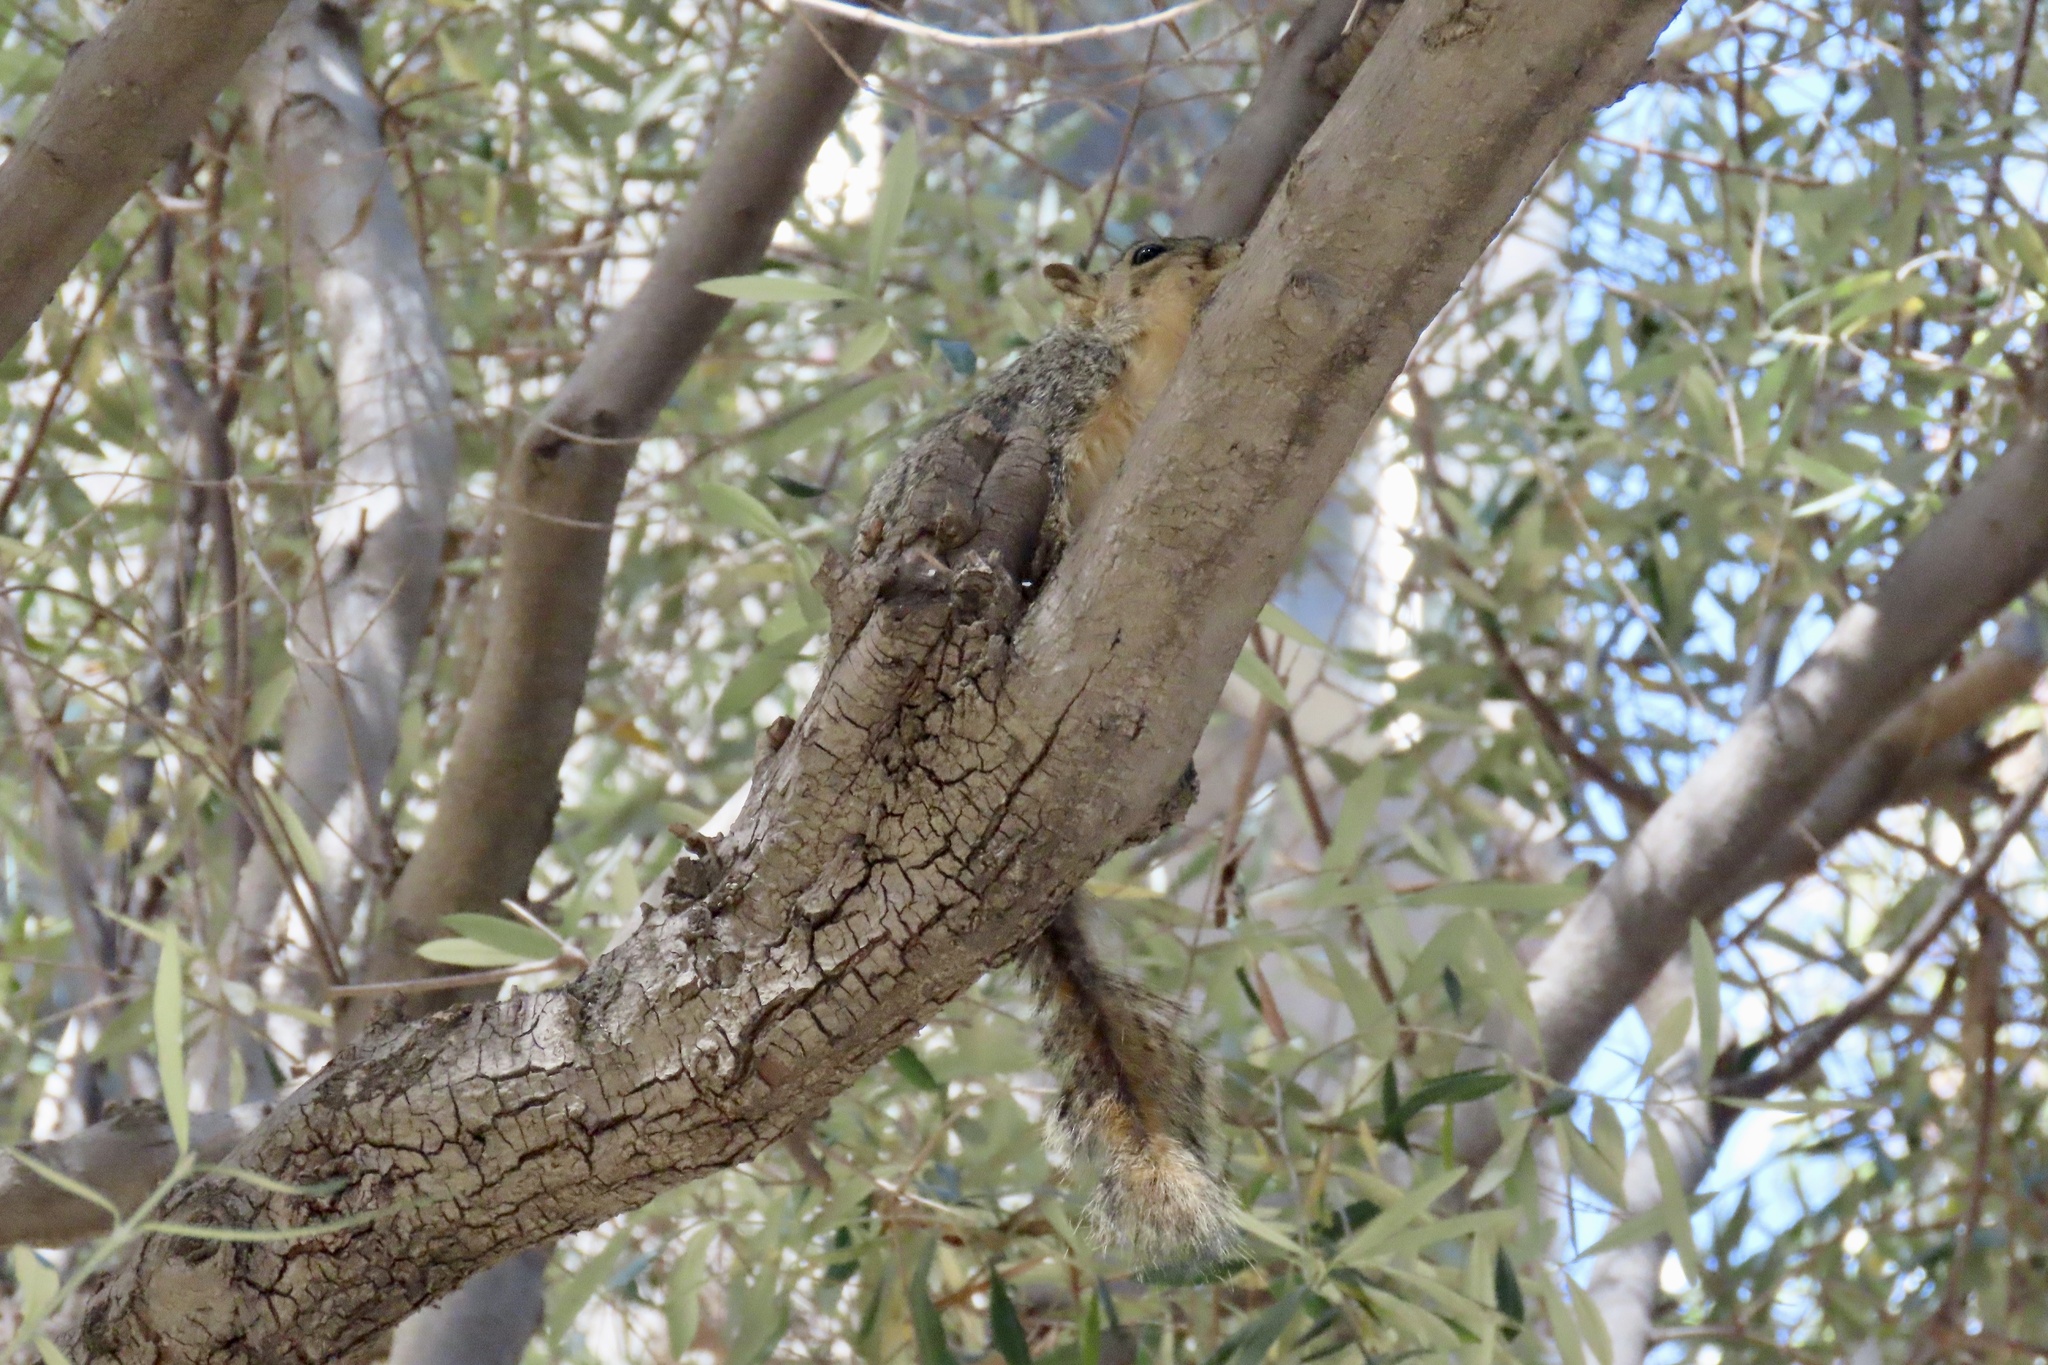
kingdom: Animalia
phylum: Chordata
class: Mammalia
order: Rodentia
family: Sciuridae
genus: Sciurus
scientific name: Sciurus niger
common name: Fox squirrel
